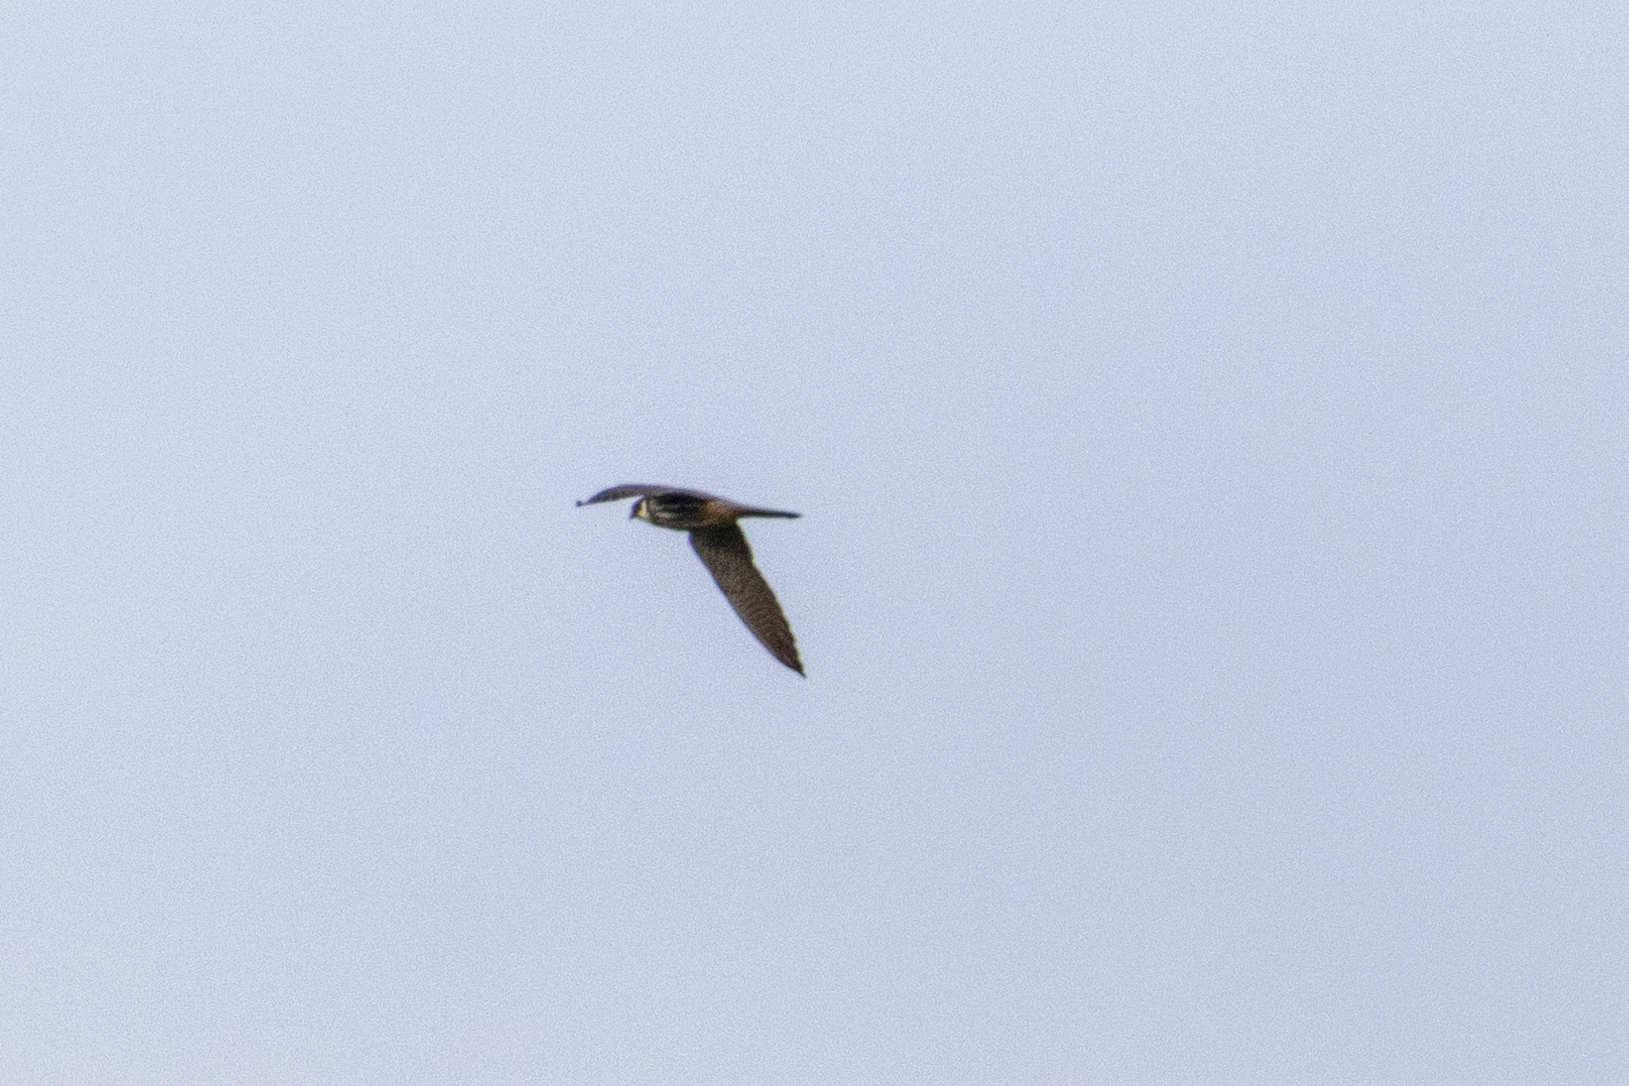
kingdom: Animalia
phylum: Chordata
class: Aves
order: Falconiformes
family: Falconidae
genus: Falco
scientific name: Falco subbuteo
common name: Eurasian hobby
